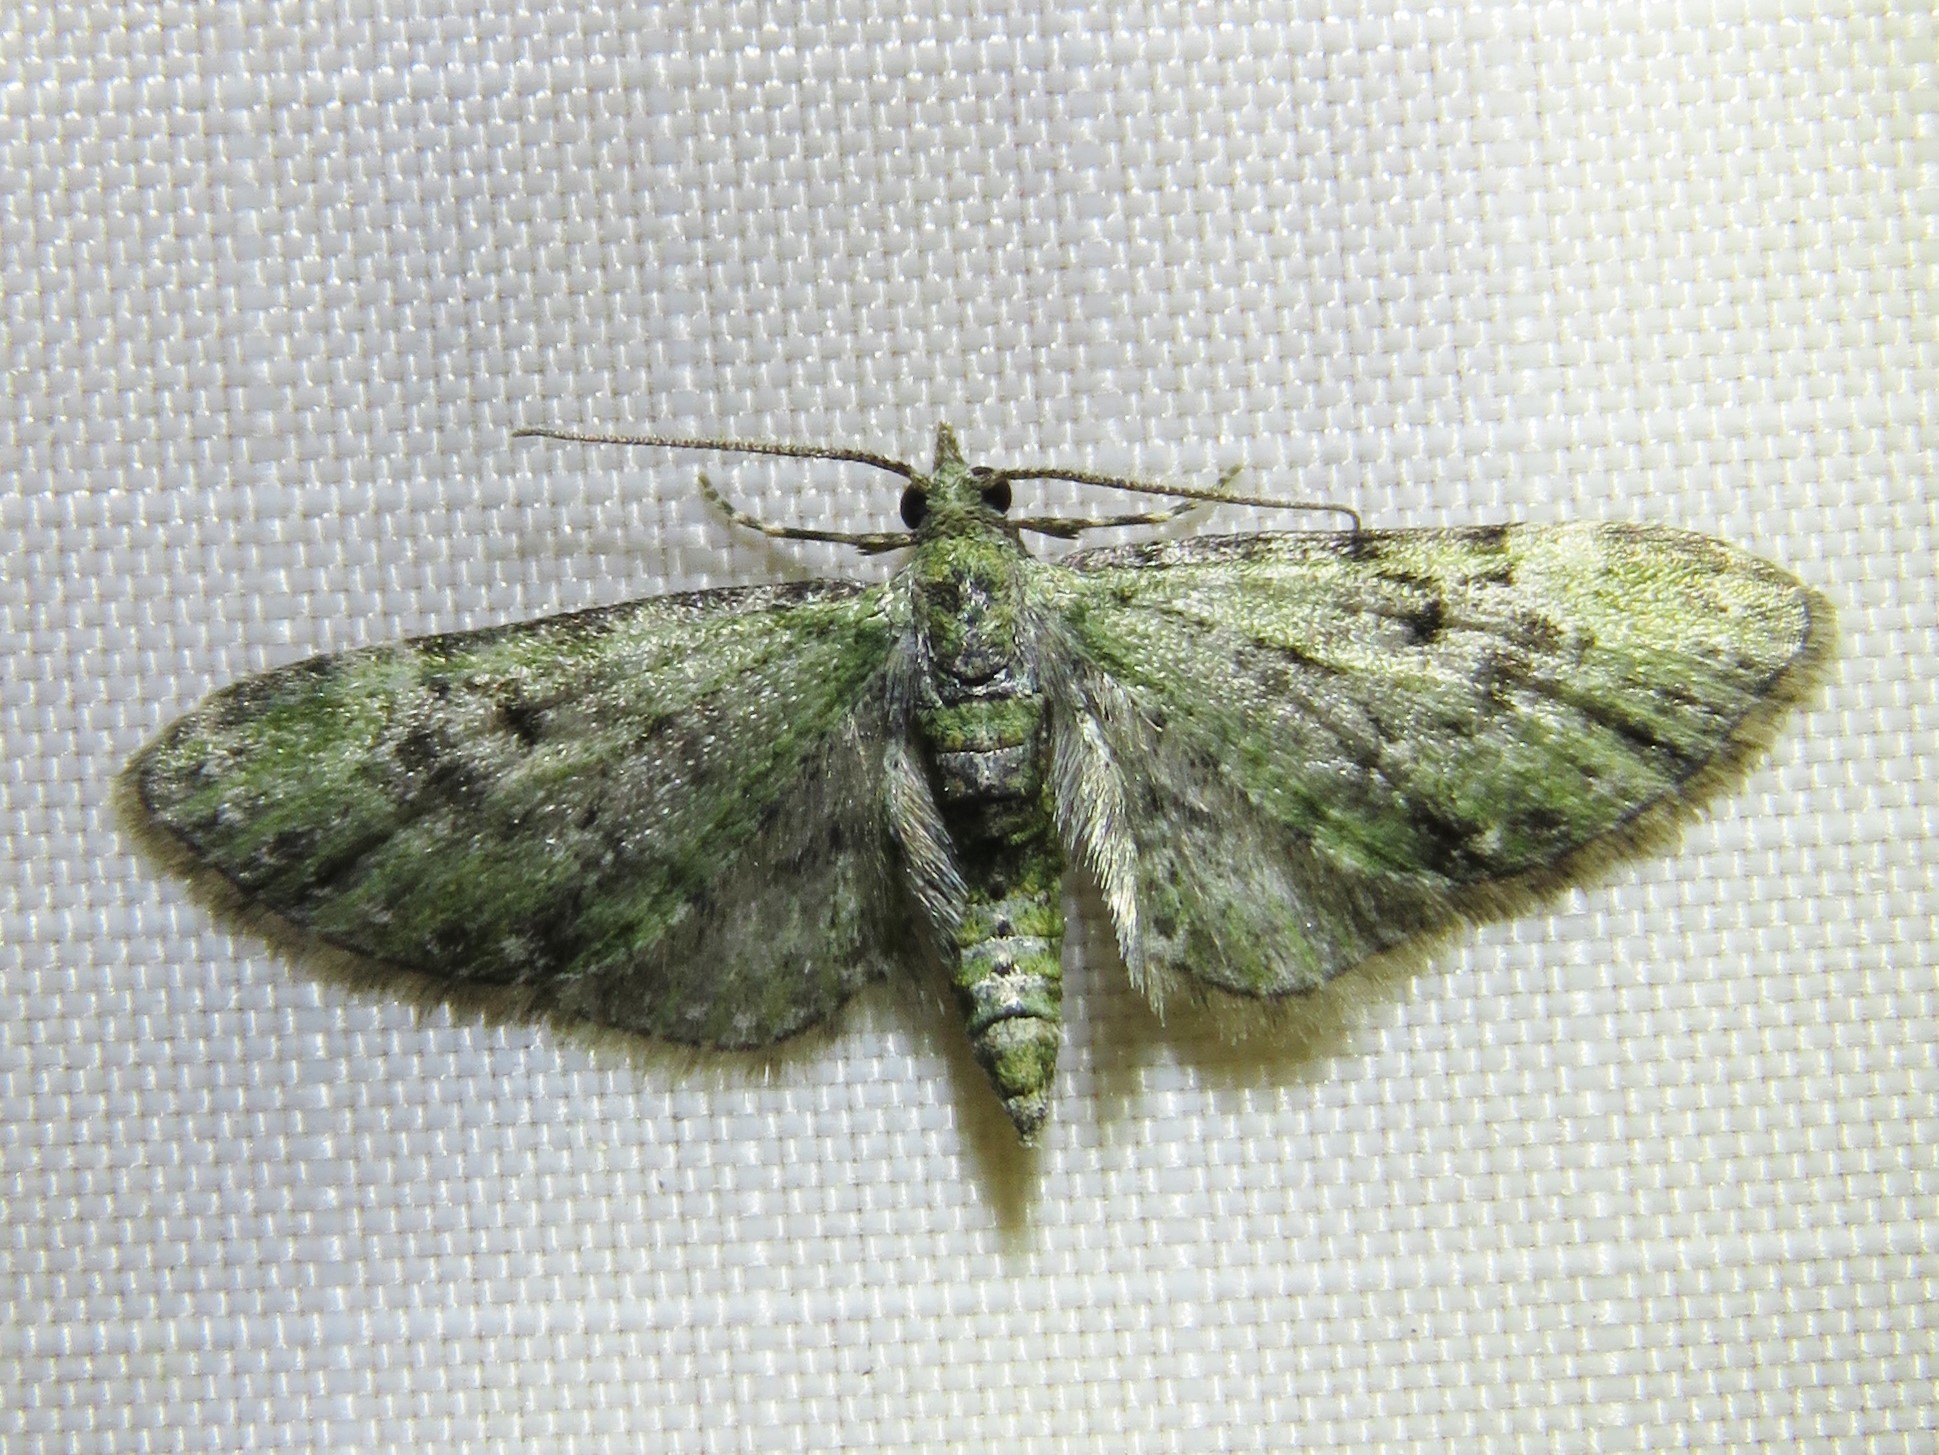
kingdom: Animalia
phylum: Arthropoda
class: Insecta
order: Lepidoptera
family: Geometridae
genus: Eupithecia
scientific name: Eupithecia miserulata
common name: Common eupithecia
